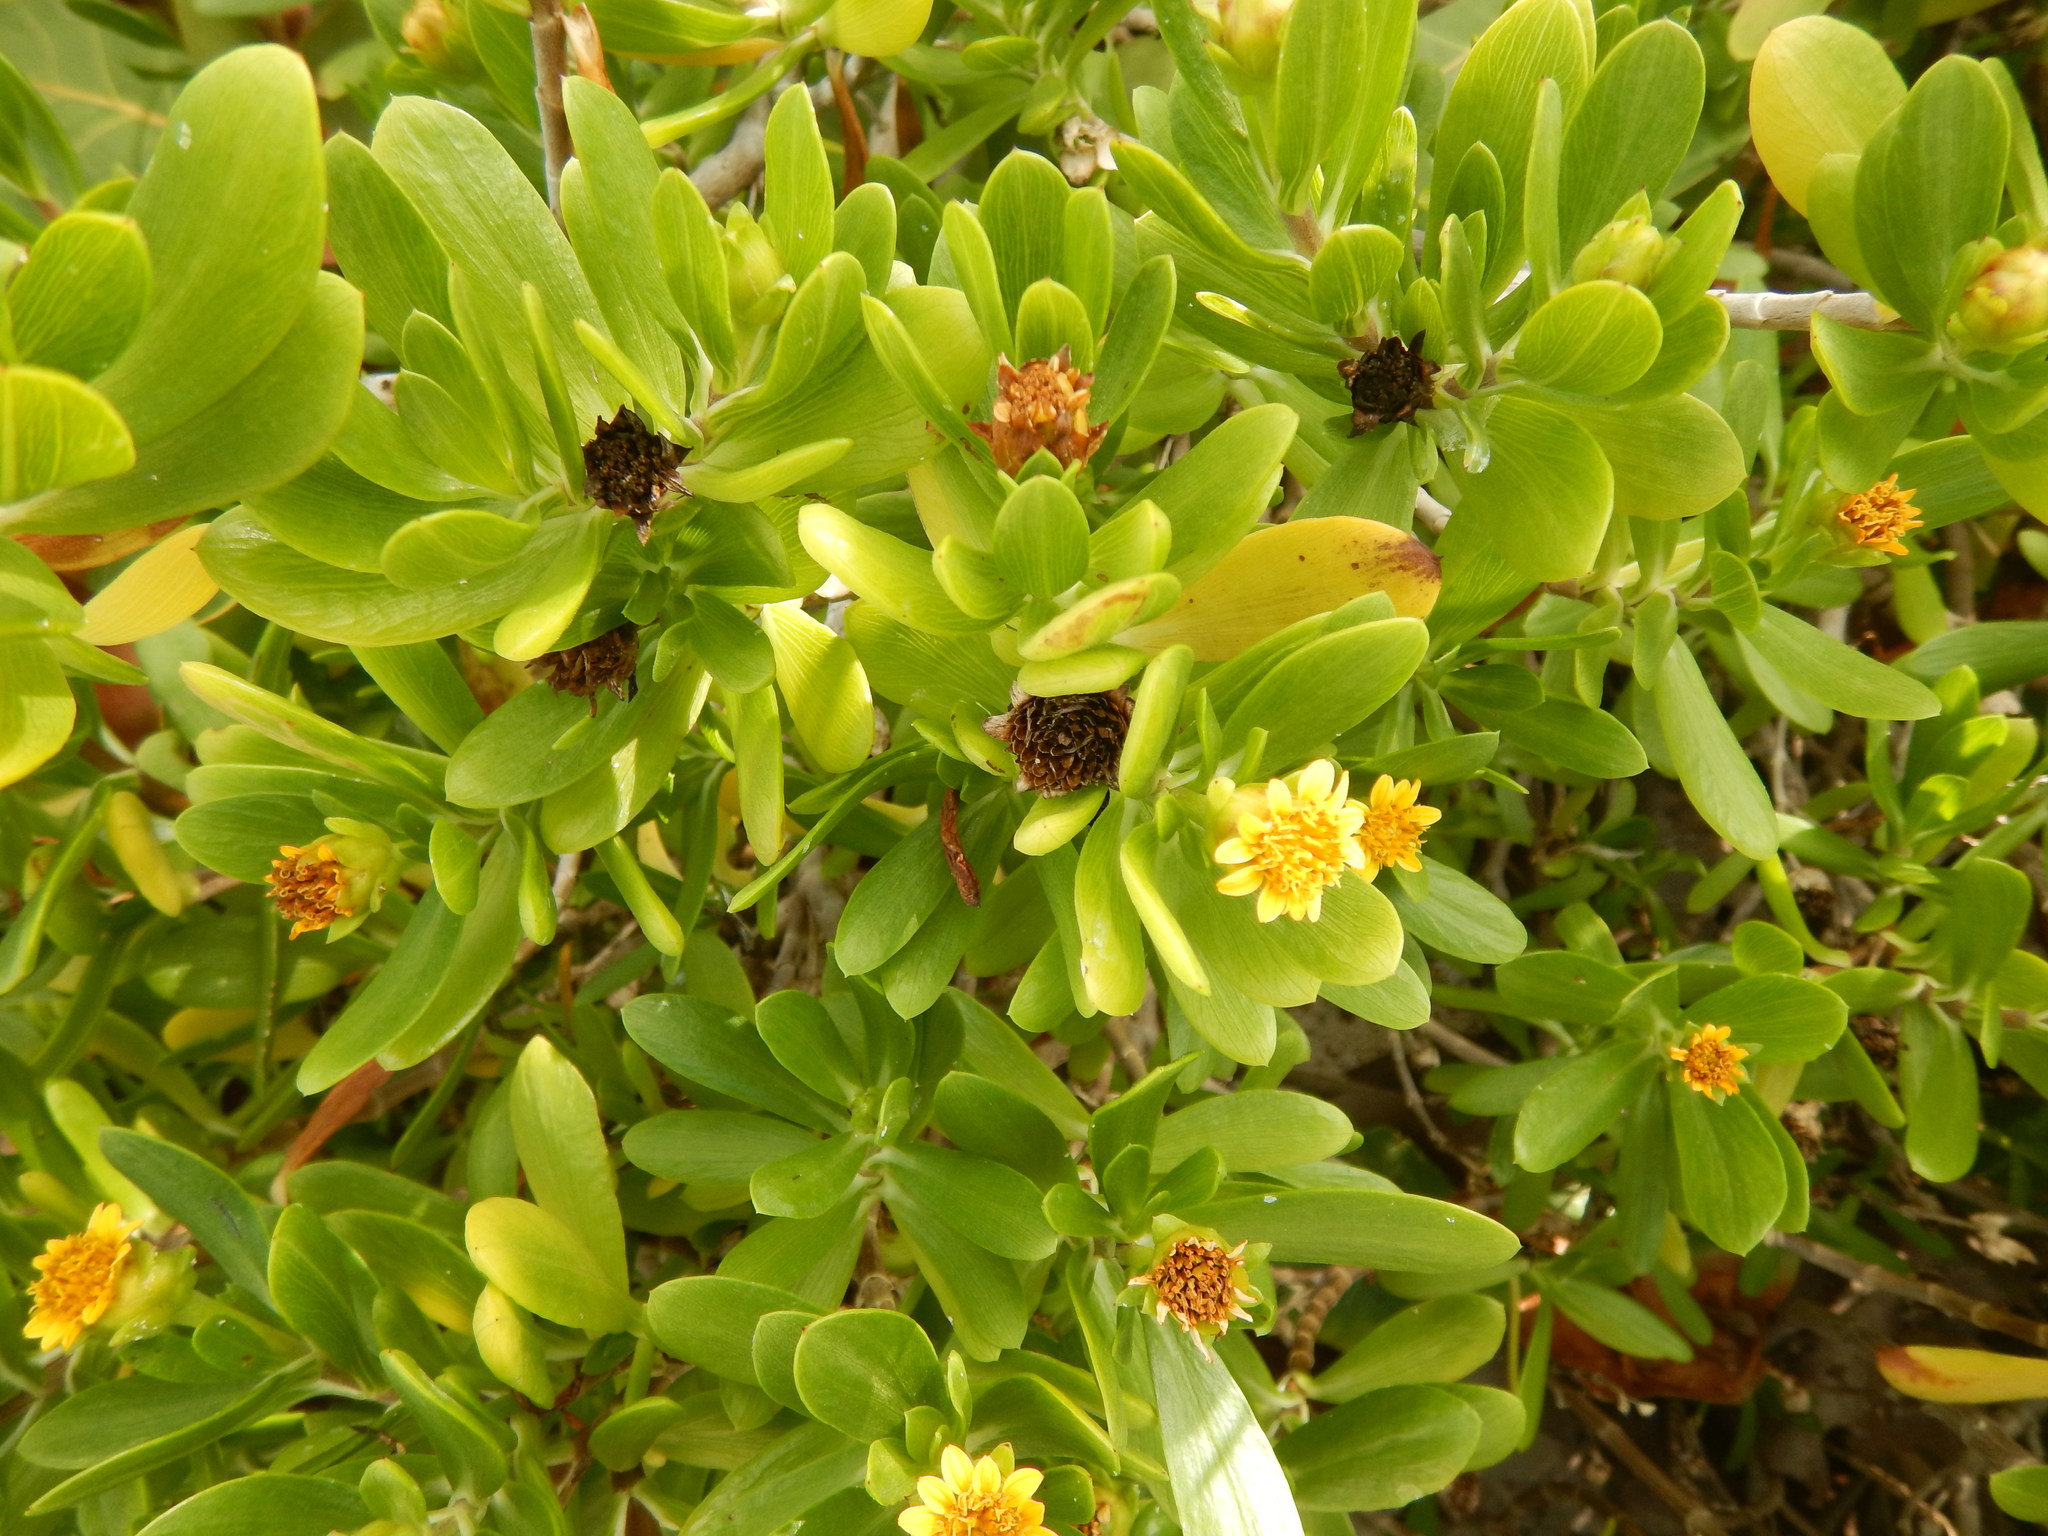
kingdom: Plantae
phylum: Tracheophyta
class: Magnoliopsida
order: Asterales
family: Asteraceae
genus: Borrichia
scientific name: Borrichia arborescens
